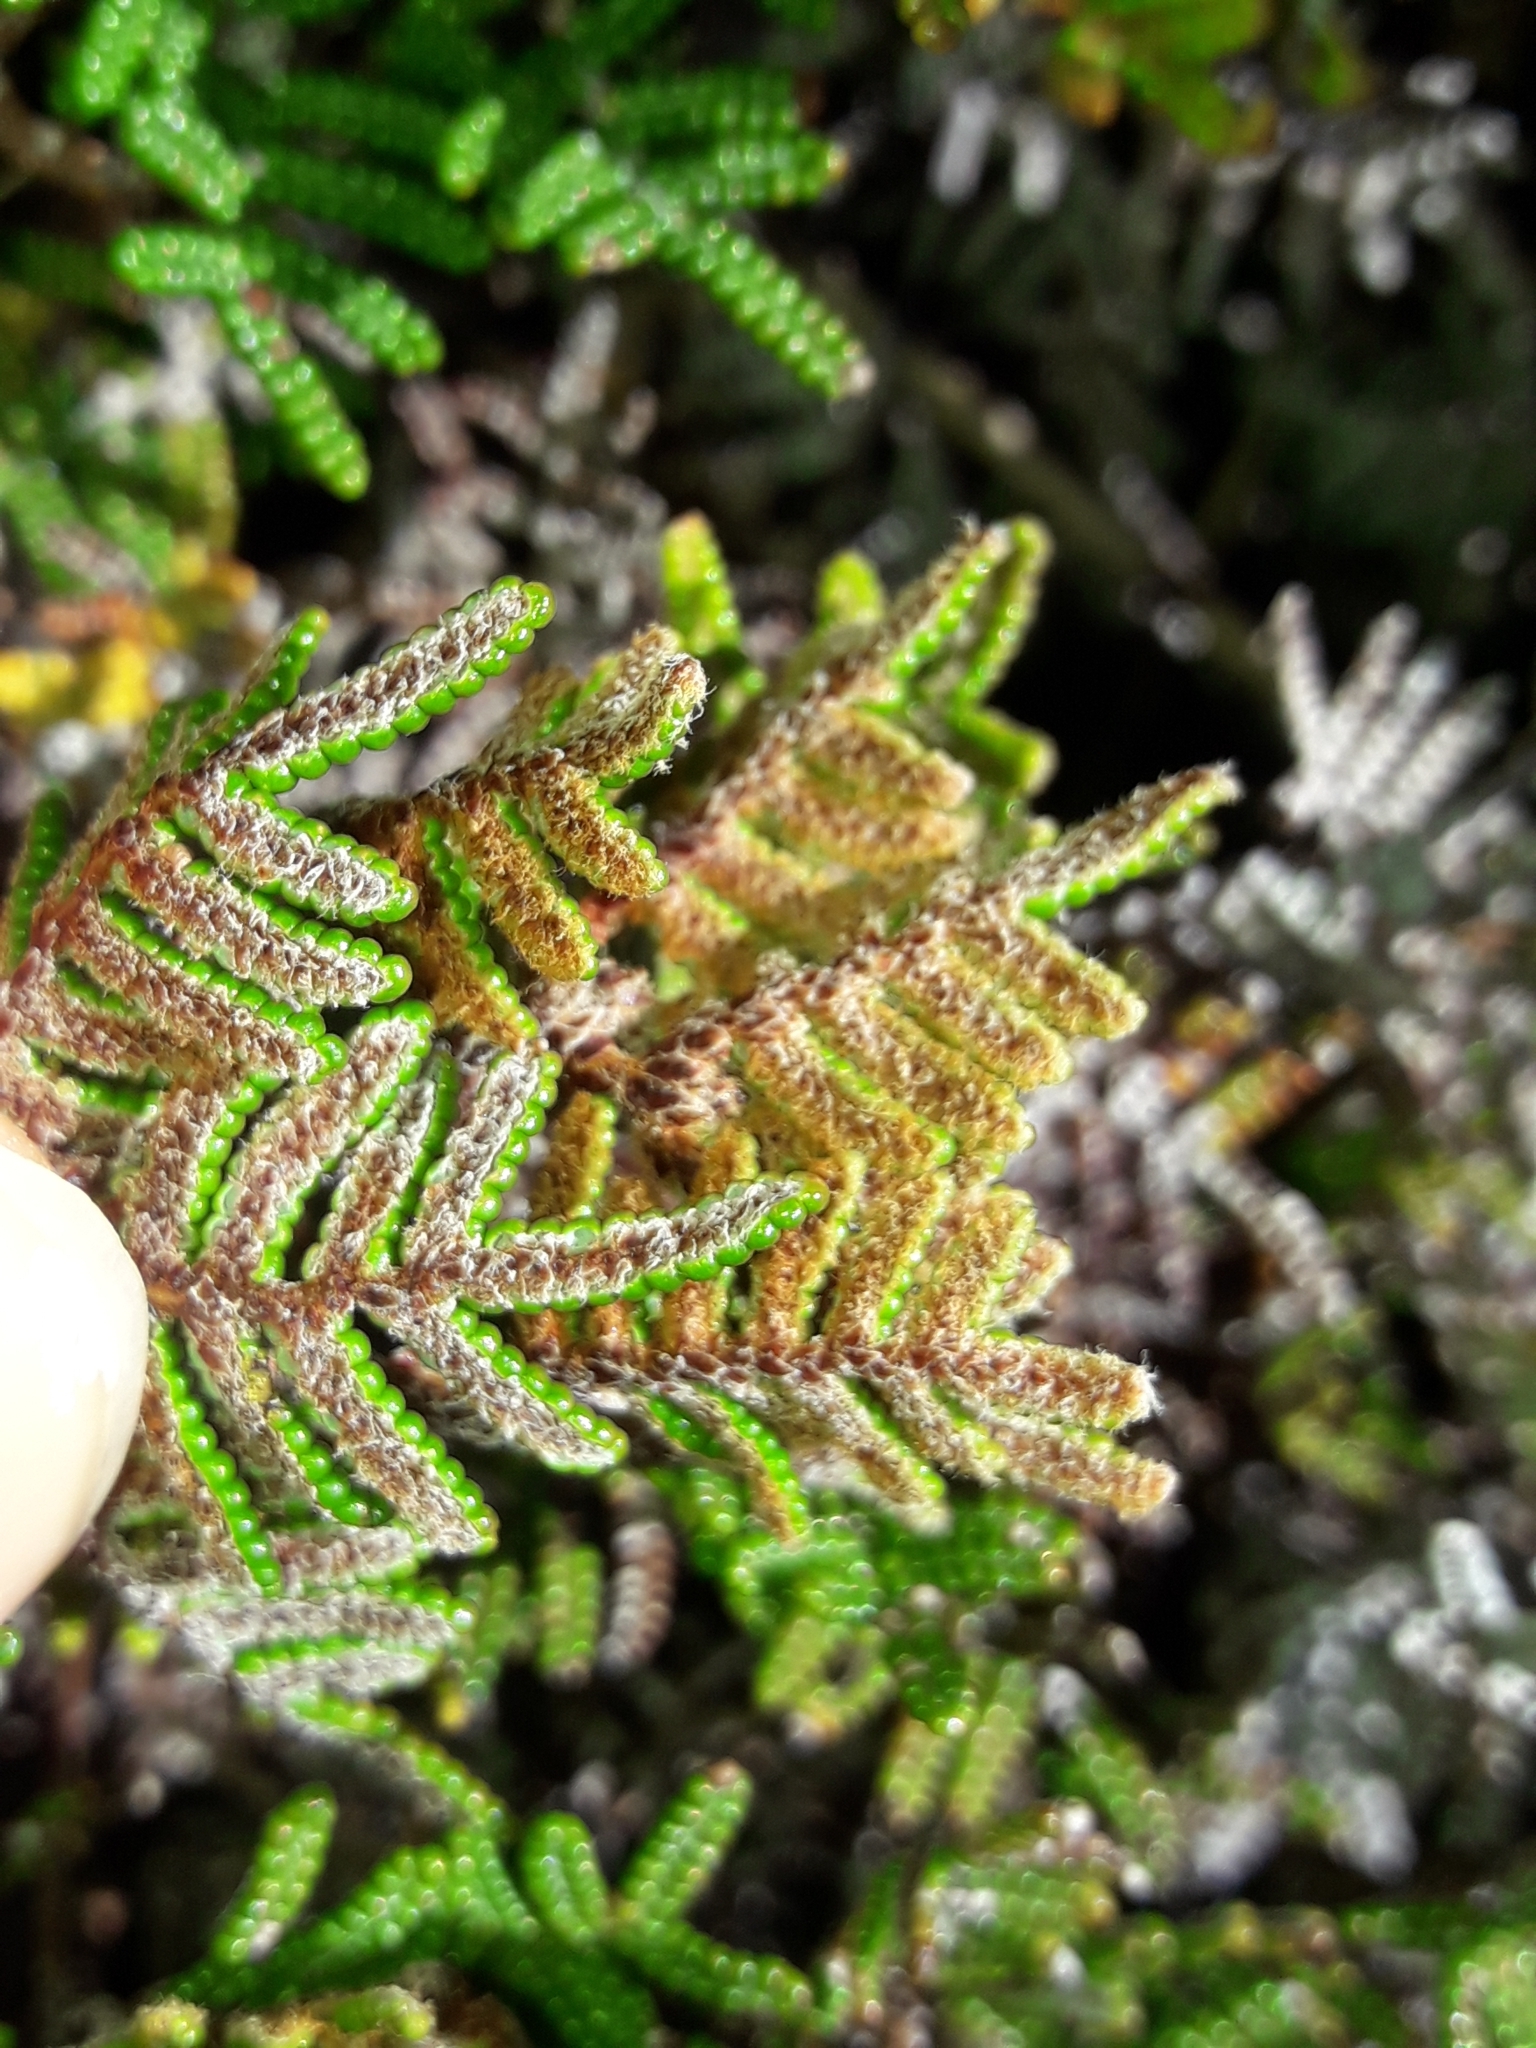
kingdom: Plantae
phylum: Tracheophyta
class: Polypodiopsida
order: Gleicheniales
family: Gleicheniaceae
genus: Gleichenia
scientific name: Gleichenia alpina
